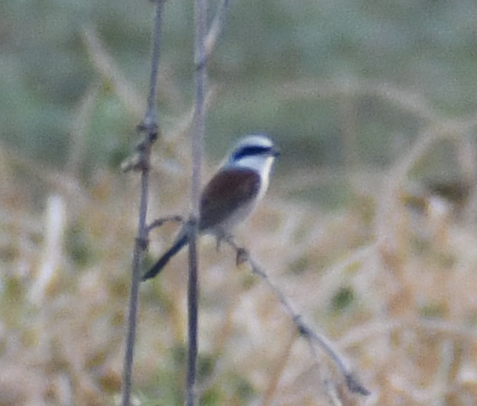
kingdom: Animalia
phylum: Chordata
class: Aves
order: Passeriformes
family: Laniidae
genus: Lanius
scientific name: Lanius collurio
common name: Red-backed shrike
